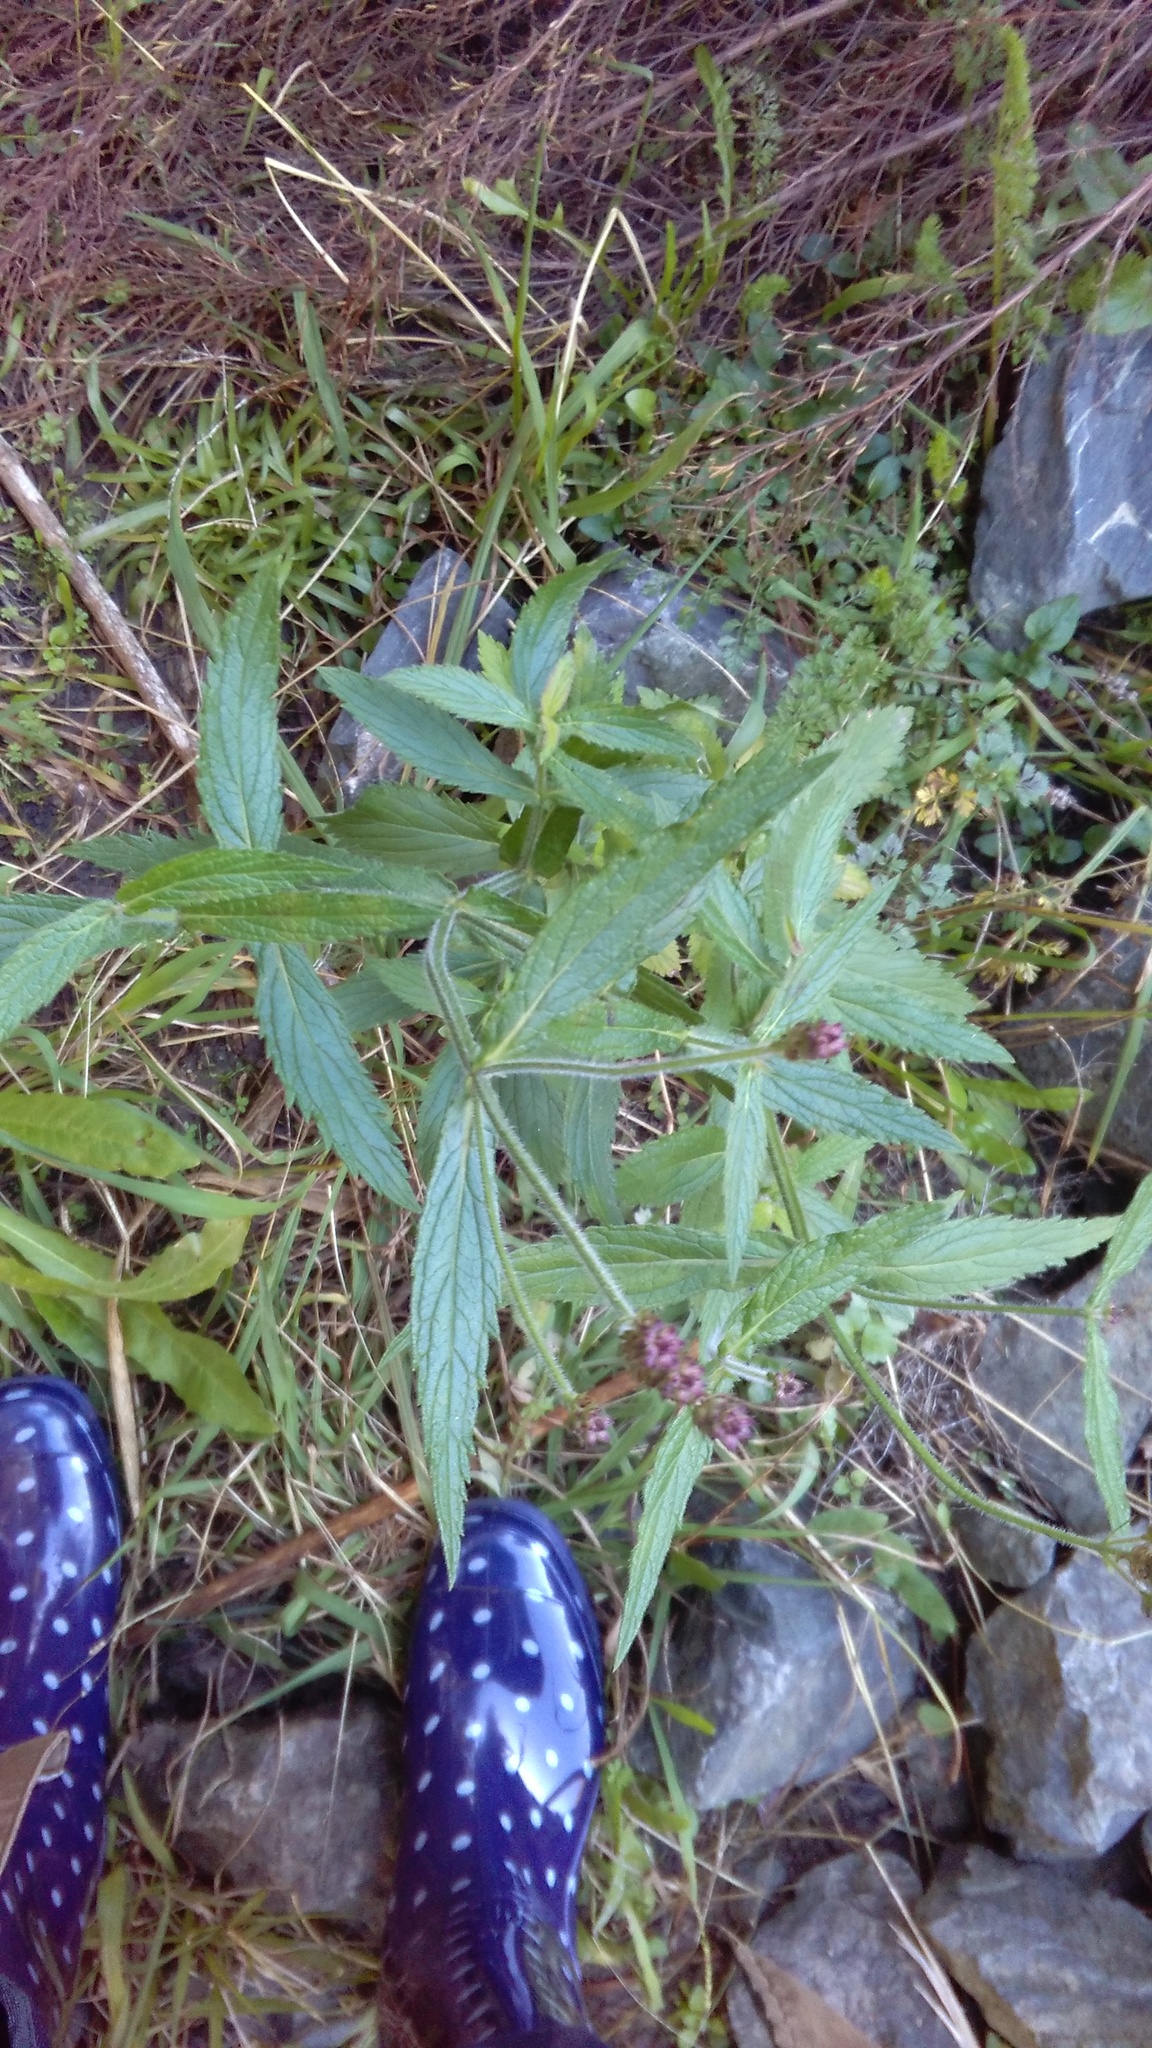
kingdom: Plantae
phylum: Tracheophyta
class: Magnoliopsida
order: Lamiales
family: Verbenaceae
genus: Verbena
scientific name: Verbena incompta
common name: Purpletop vervain
